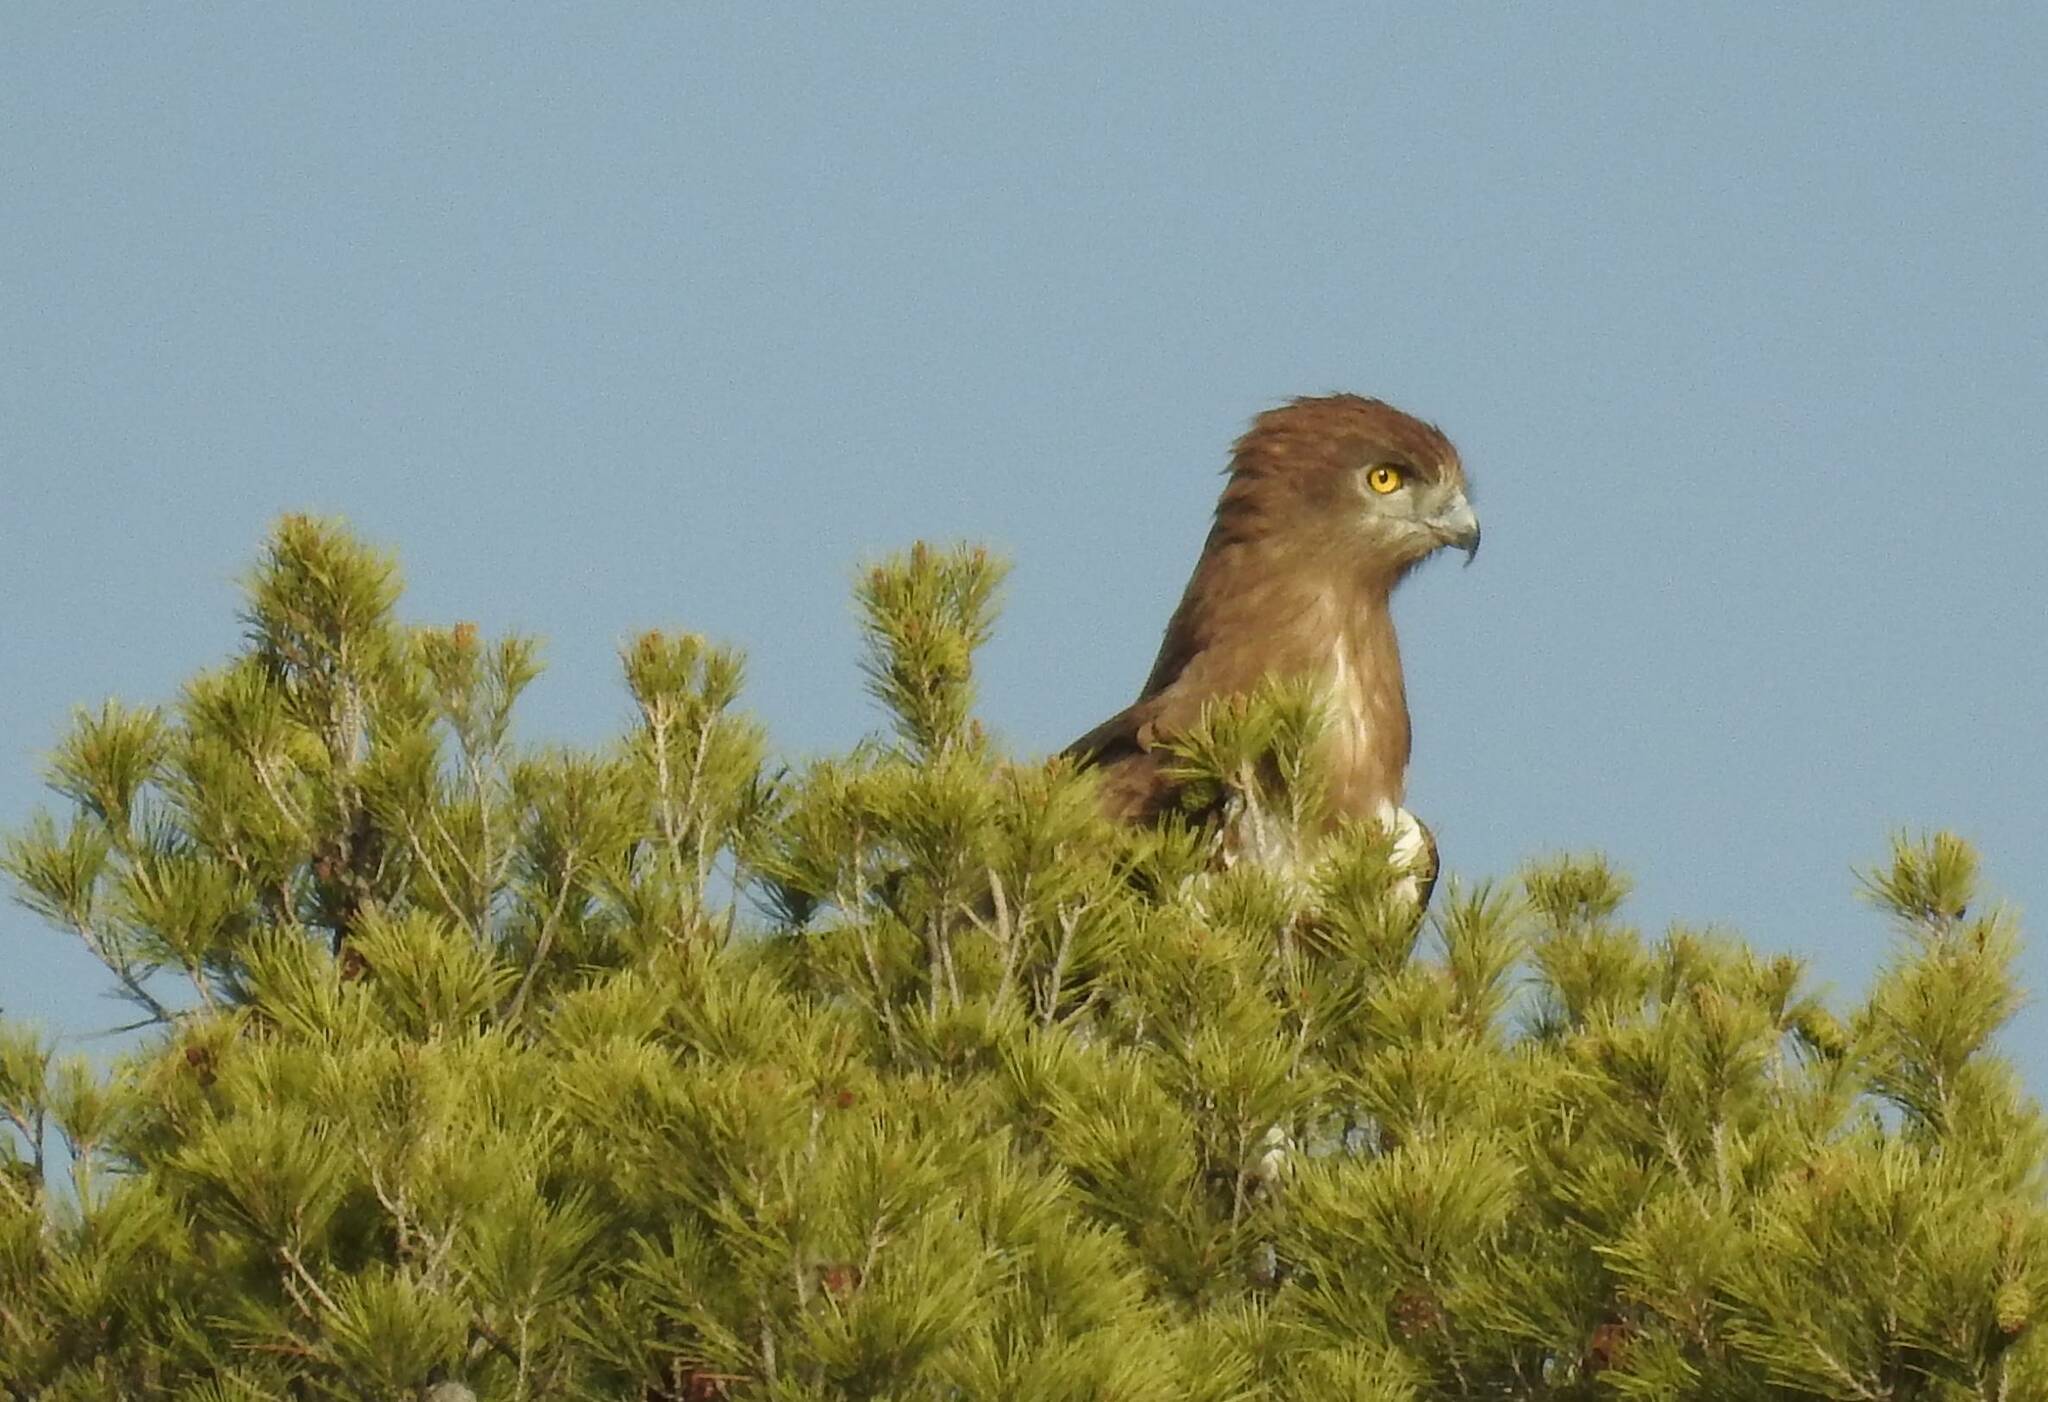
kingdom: Animalia
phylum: Chordata
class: Aves
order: Accipitriformes
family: Accipitridae
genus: Circaetus
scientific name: Circaetus gallicus
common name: Short-toed snake eagle
